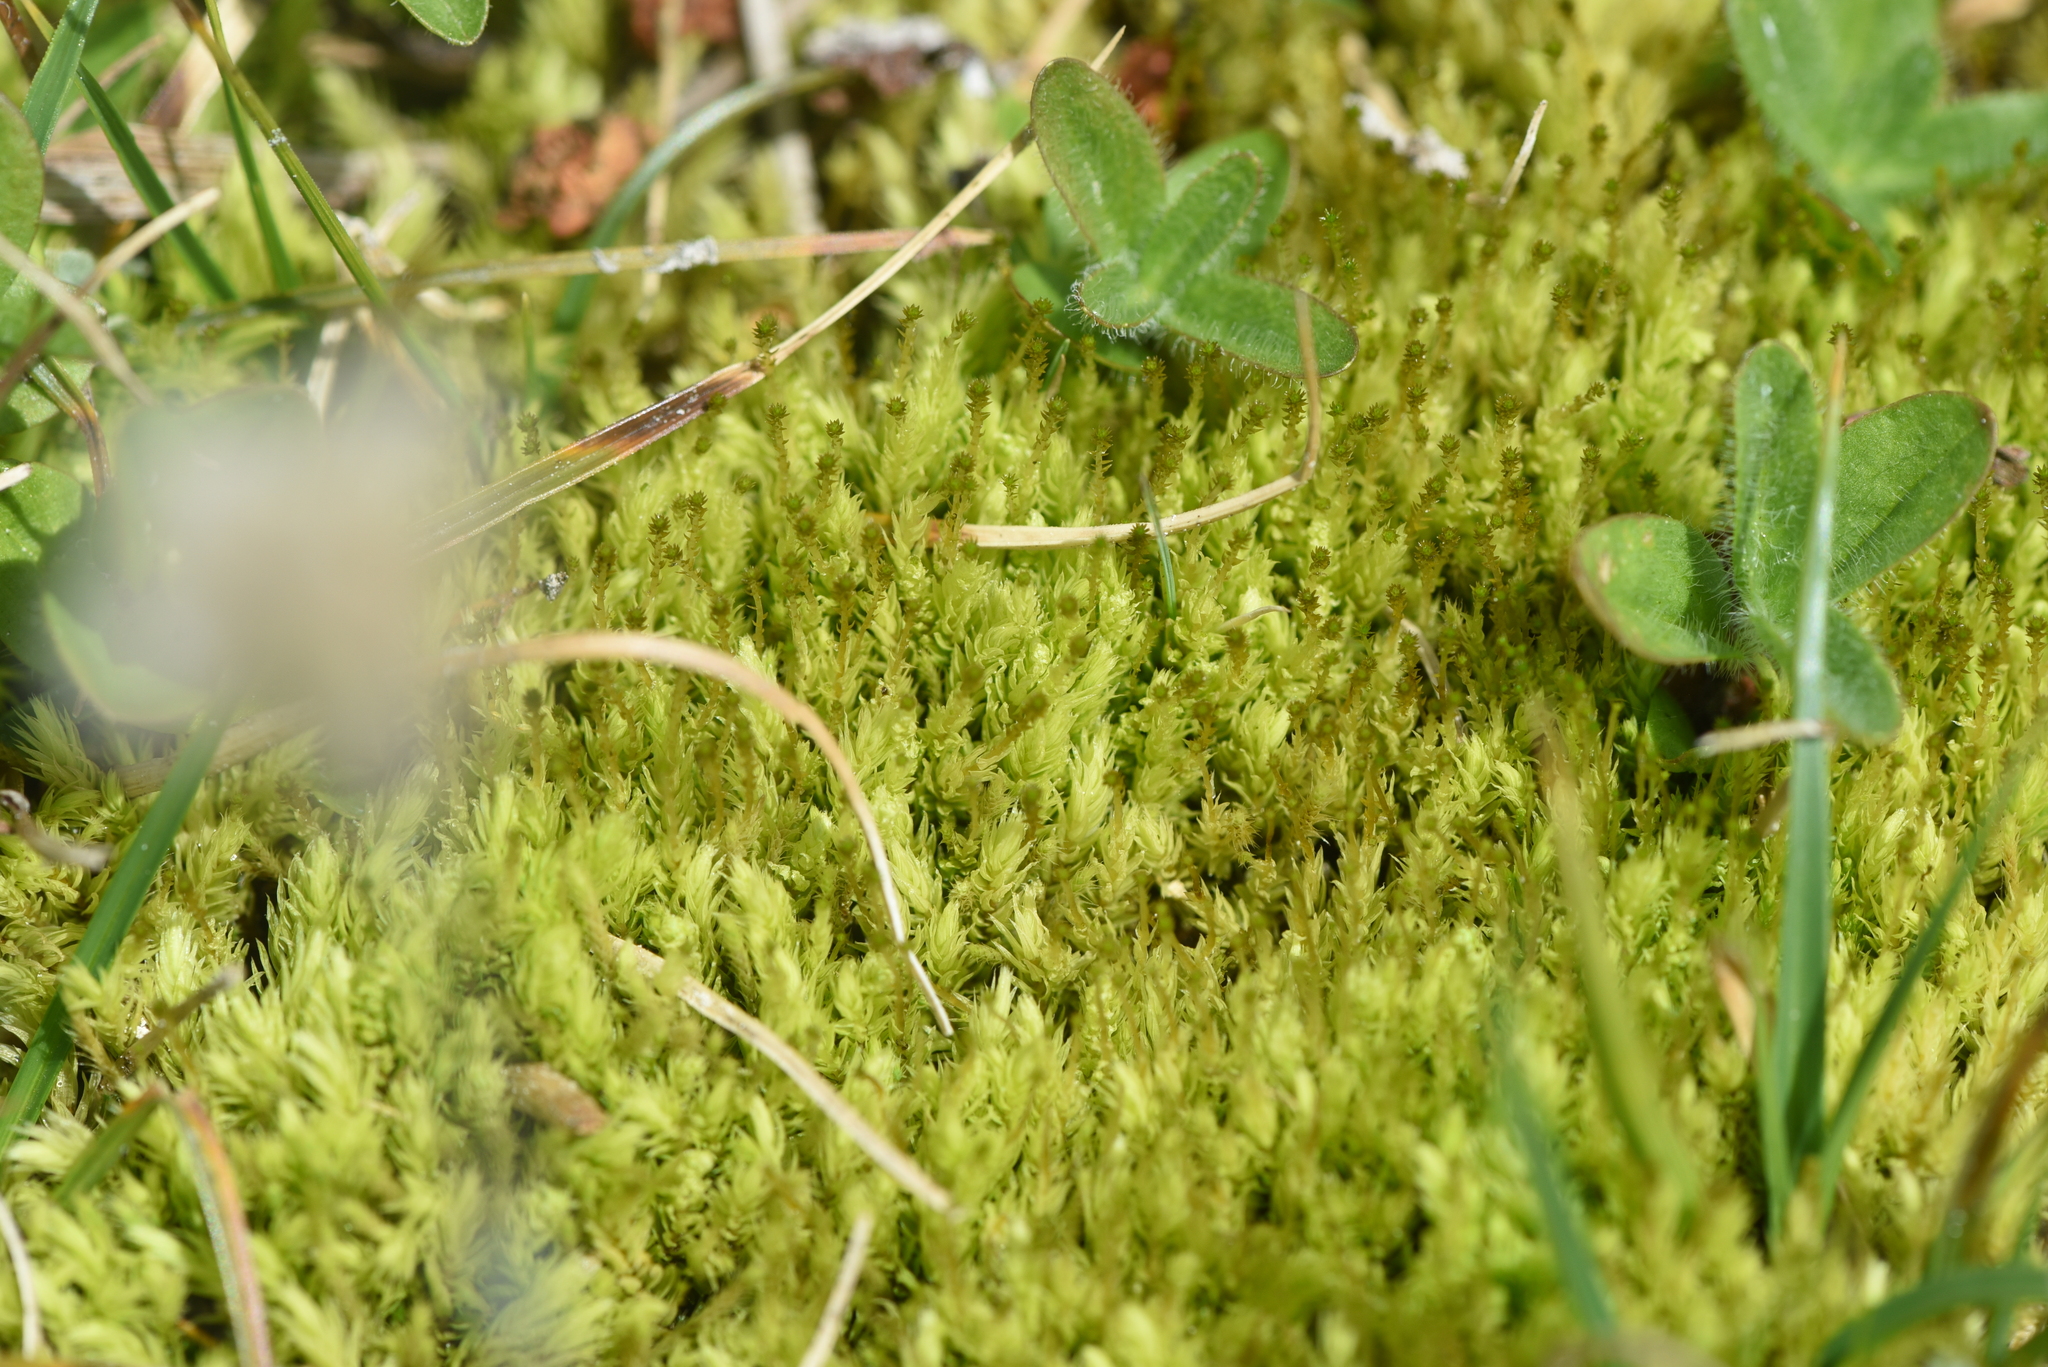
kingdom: Plantae
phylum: Bryophyta
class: Bryopsida
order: Aulacomniales
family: Aulacomniaceae
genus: Aulacomnium
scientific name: Aulacomnium palustre
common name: Bog groove-moss
